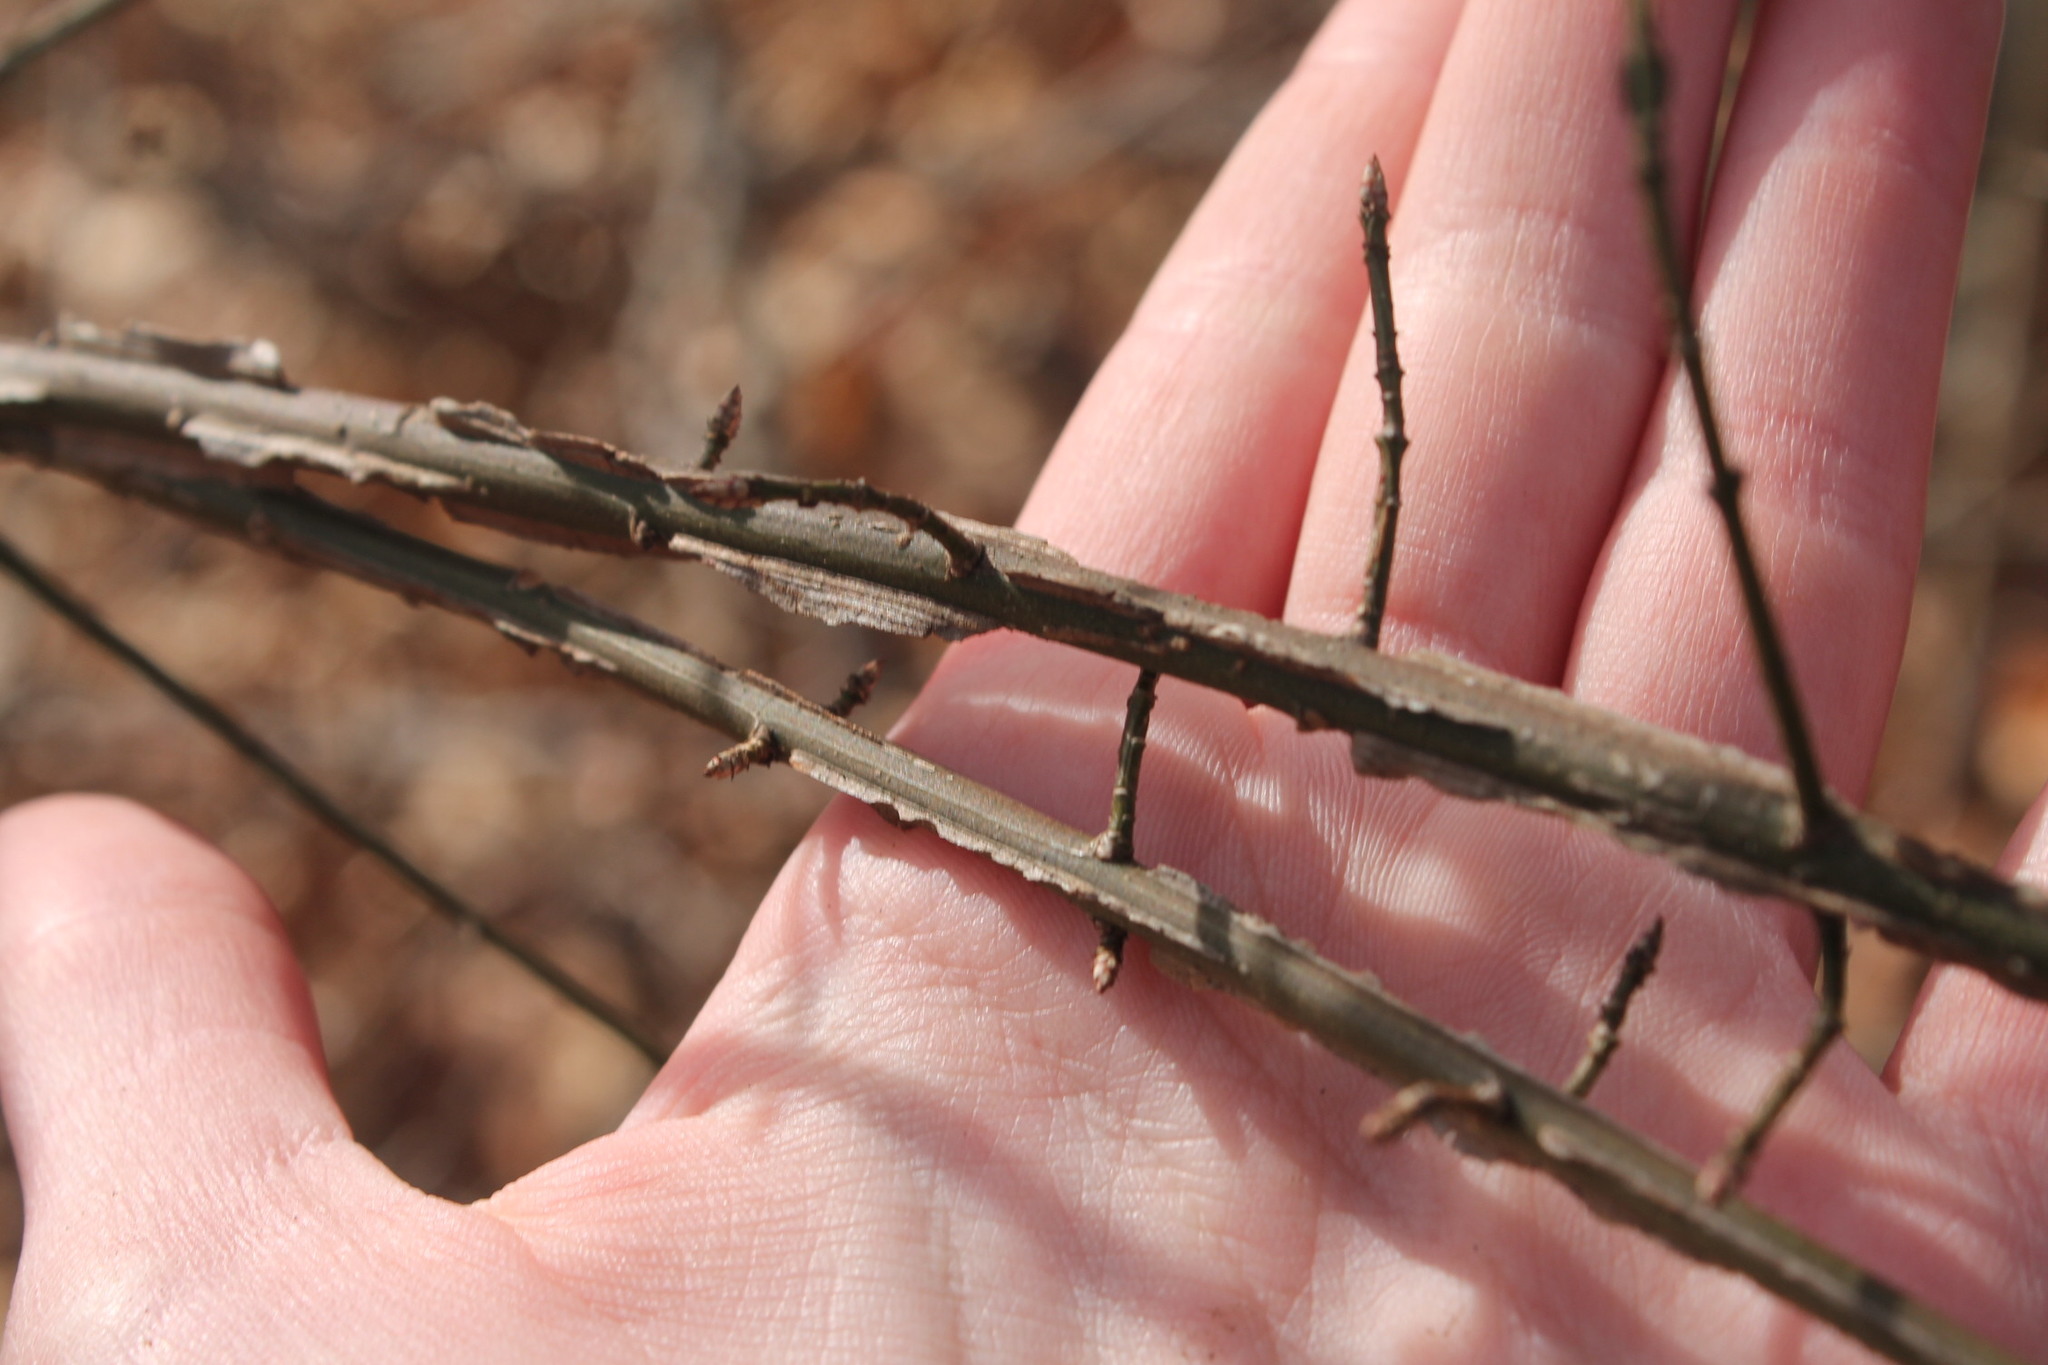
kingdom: Plantae
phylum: Tracheophyta
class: Magnoliopsida
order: Celastrales
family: Celastraceae
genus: Euonymus
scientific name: Euonymus alatus
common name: Winged euonymus
